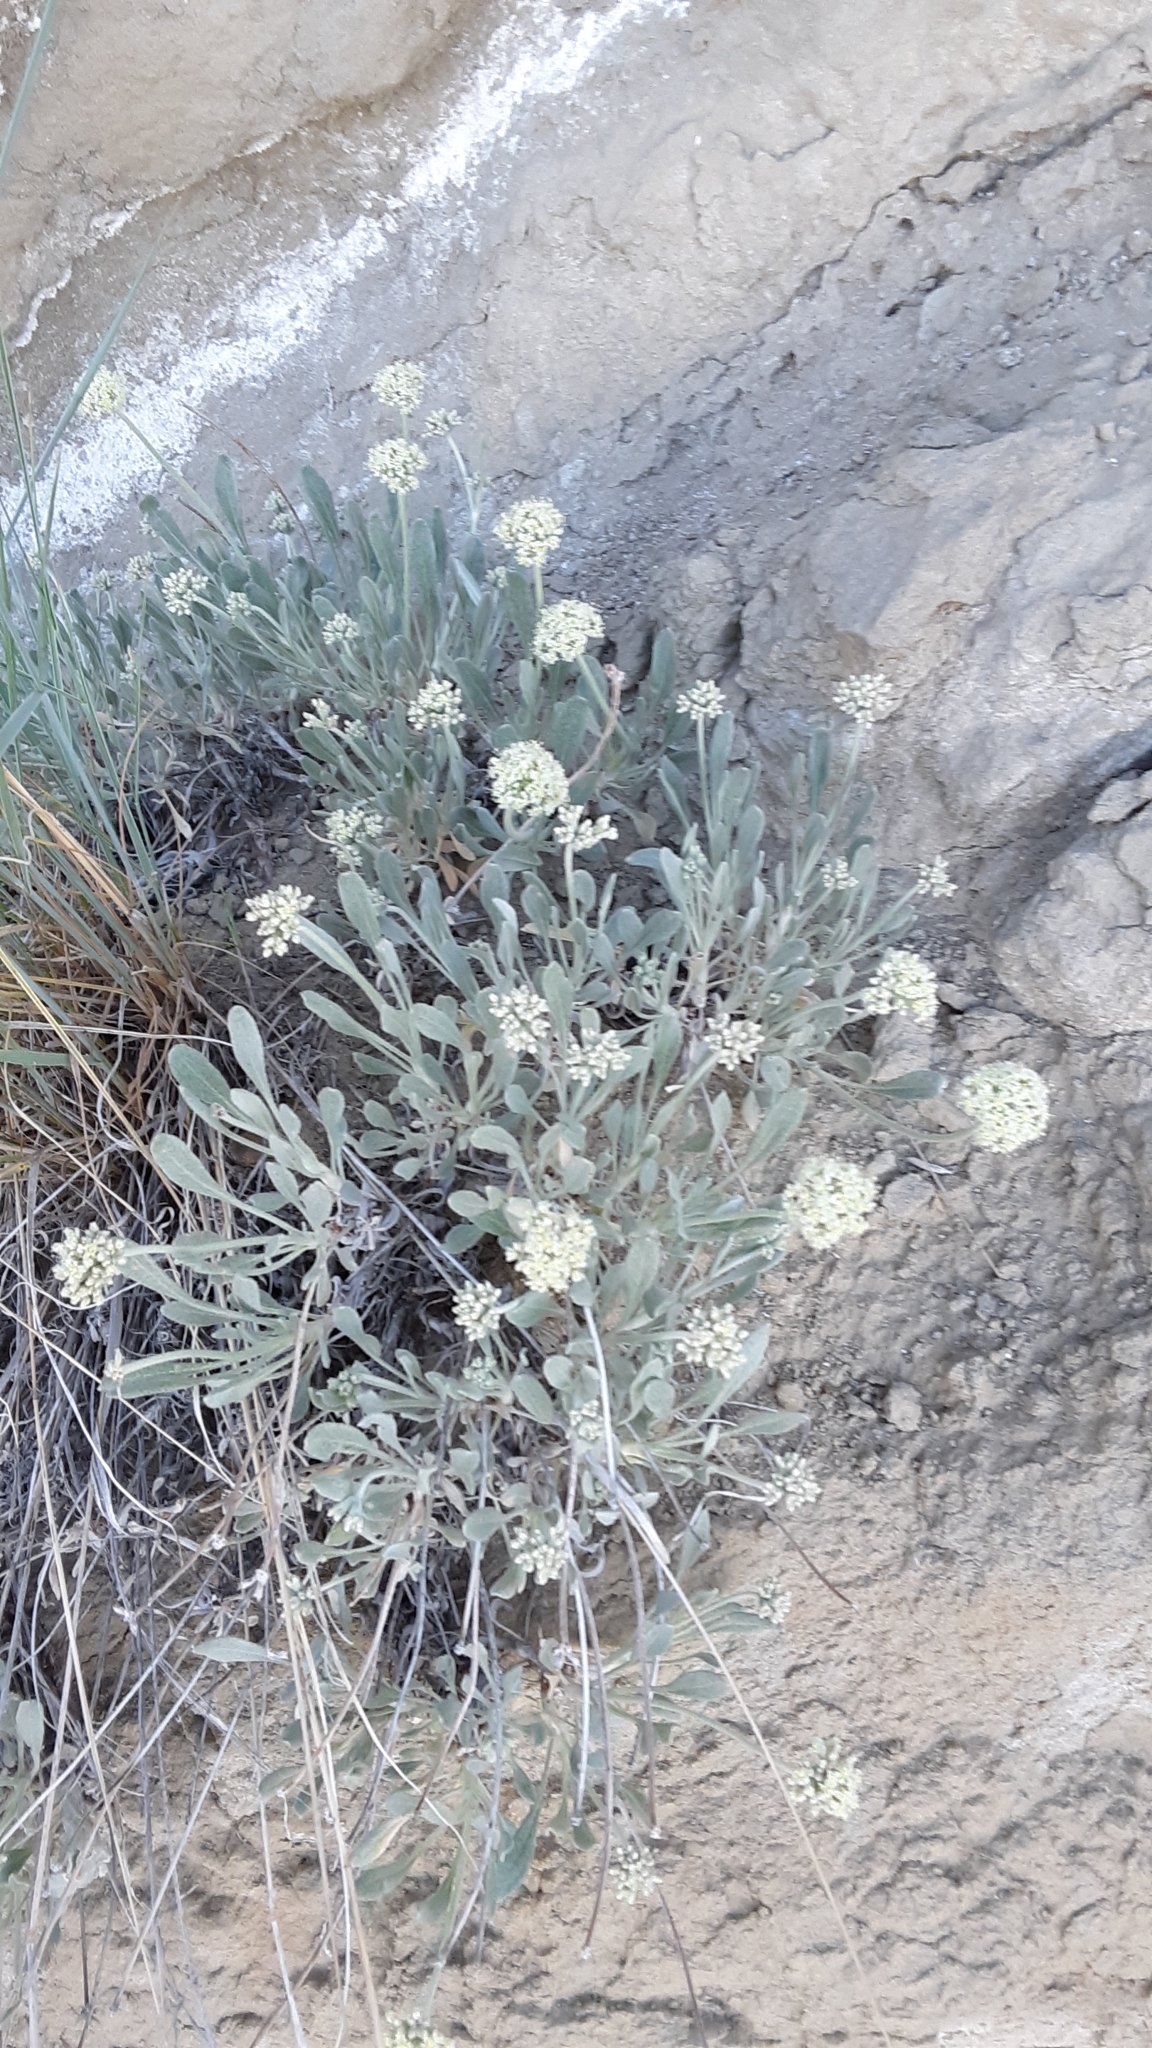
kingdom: Plantae
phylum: Tracheophyta
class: Magnoliopsida
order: Caryophyllales
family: Polygonaceae
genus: Eriogonum
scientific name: Eriogonum pauciflorum
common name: Few-flower wild buckwheat
